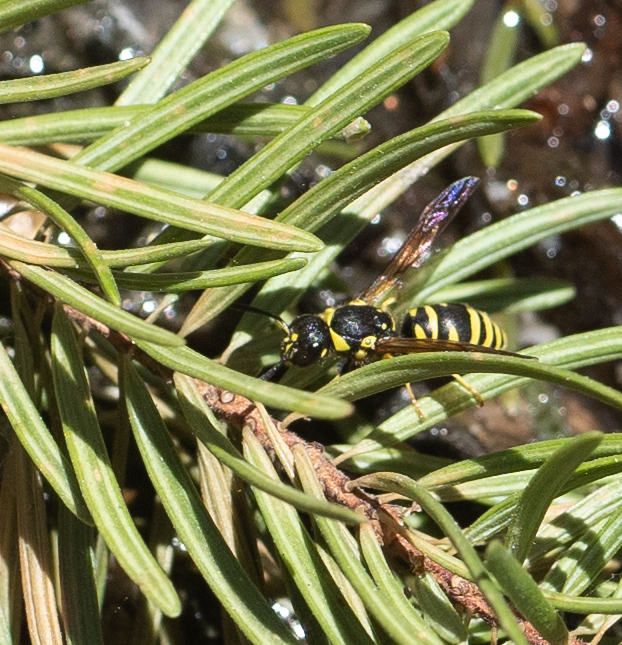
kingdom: Animalia
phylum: Arthropoda
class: Insecta
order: Hymenoptera
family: Vespidae
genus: Ancistrocerus
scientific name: Ancistrocerus adiabatus
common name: Bramble mason wasp
